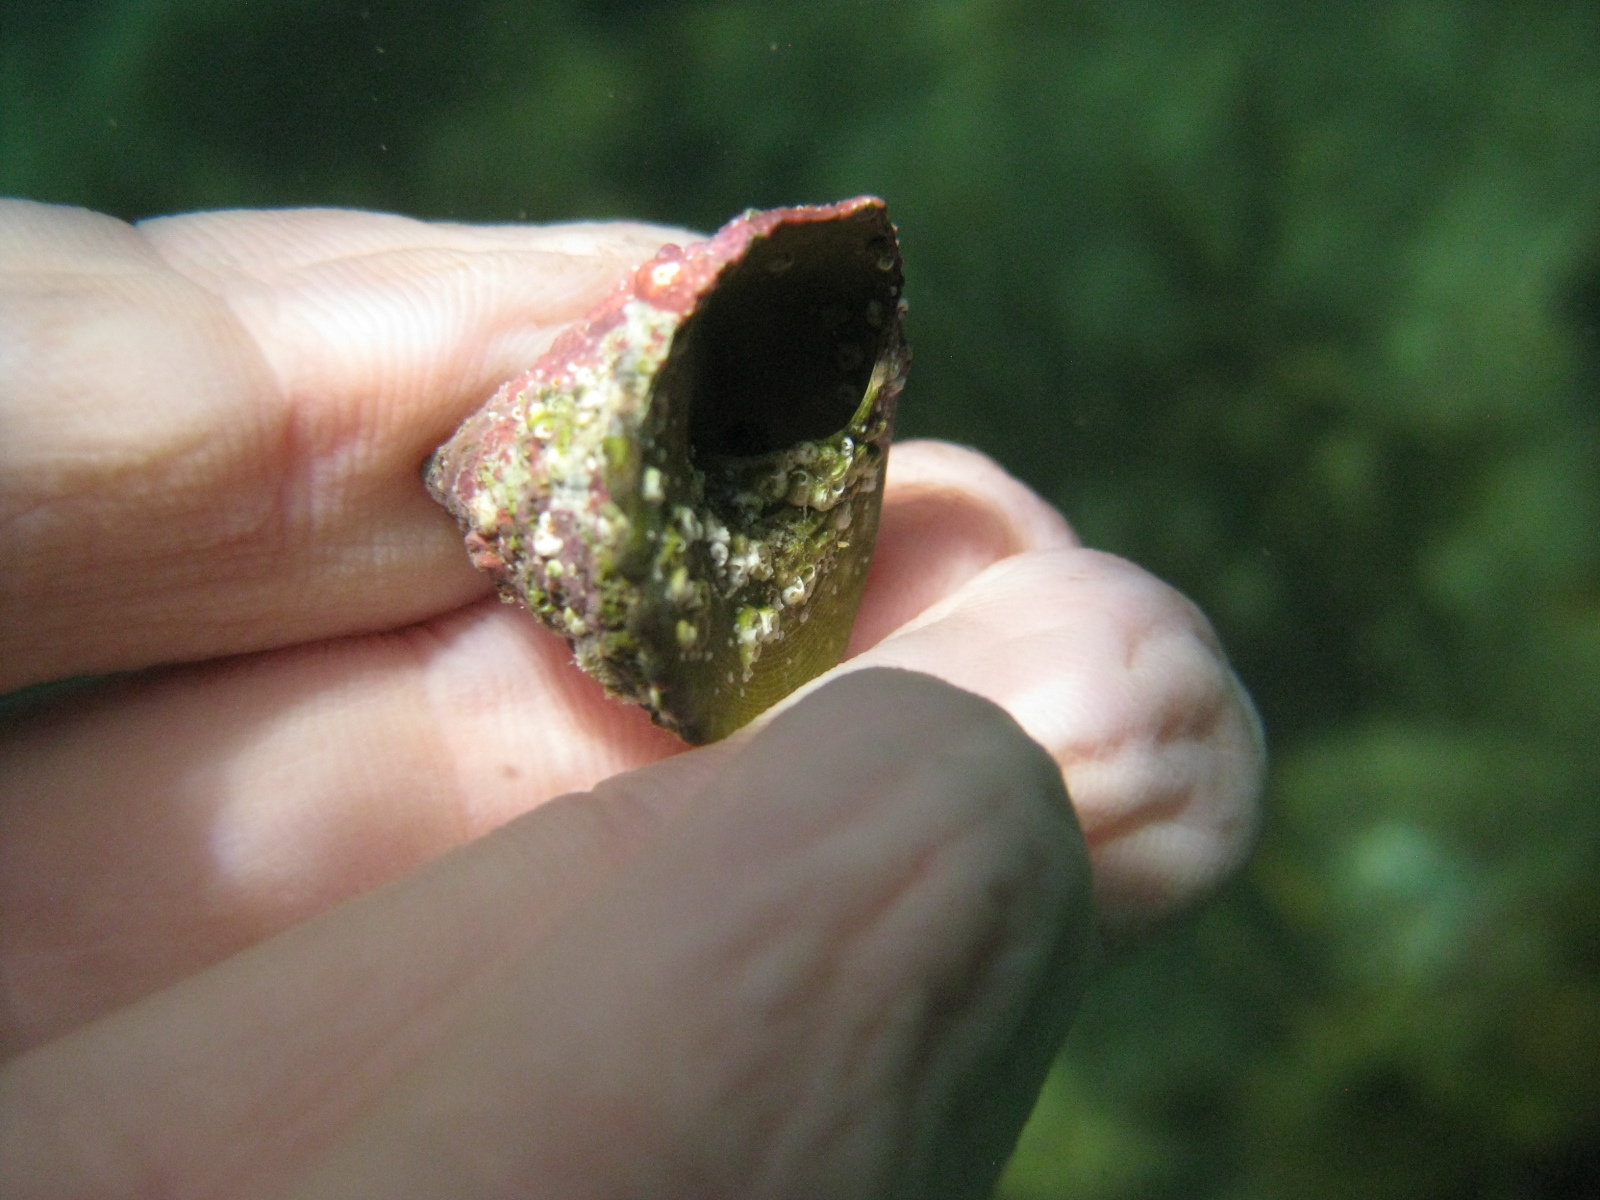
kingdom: Animalia
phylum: Mollusca
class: Gastropoda
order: Trochida
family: Trochidae
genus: Coelotrochus
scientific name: Coelotrochus viridis
